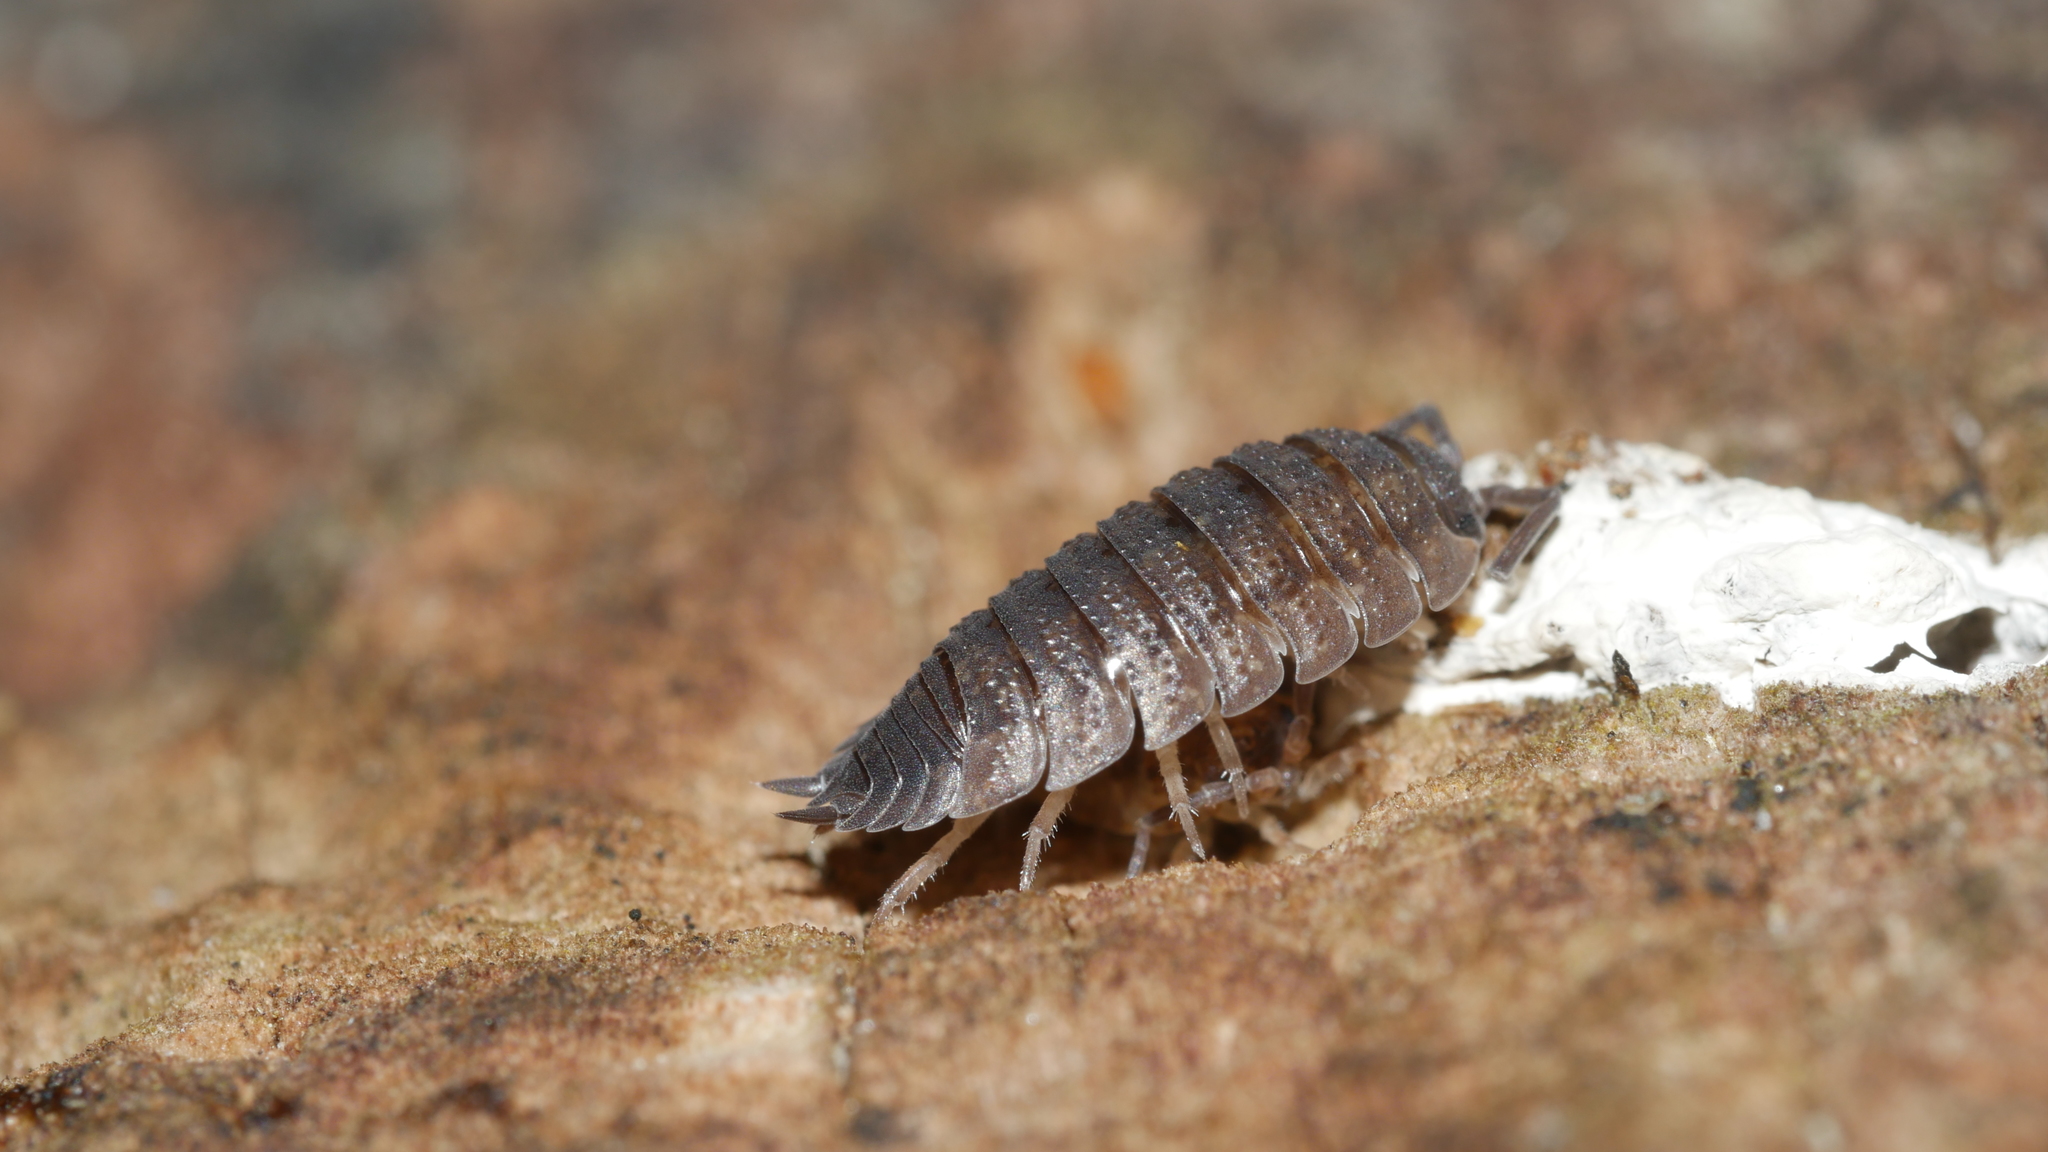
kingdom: Animalia
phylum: Arthropoda
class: Malacostraca
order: Isopoda
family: Porcellionidae
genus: Porcellio
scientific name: Porcellio scaber
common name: Common rough woodlouse
